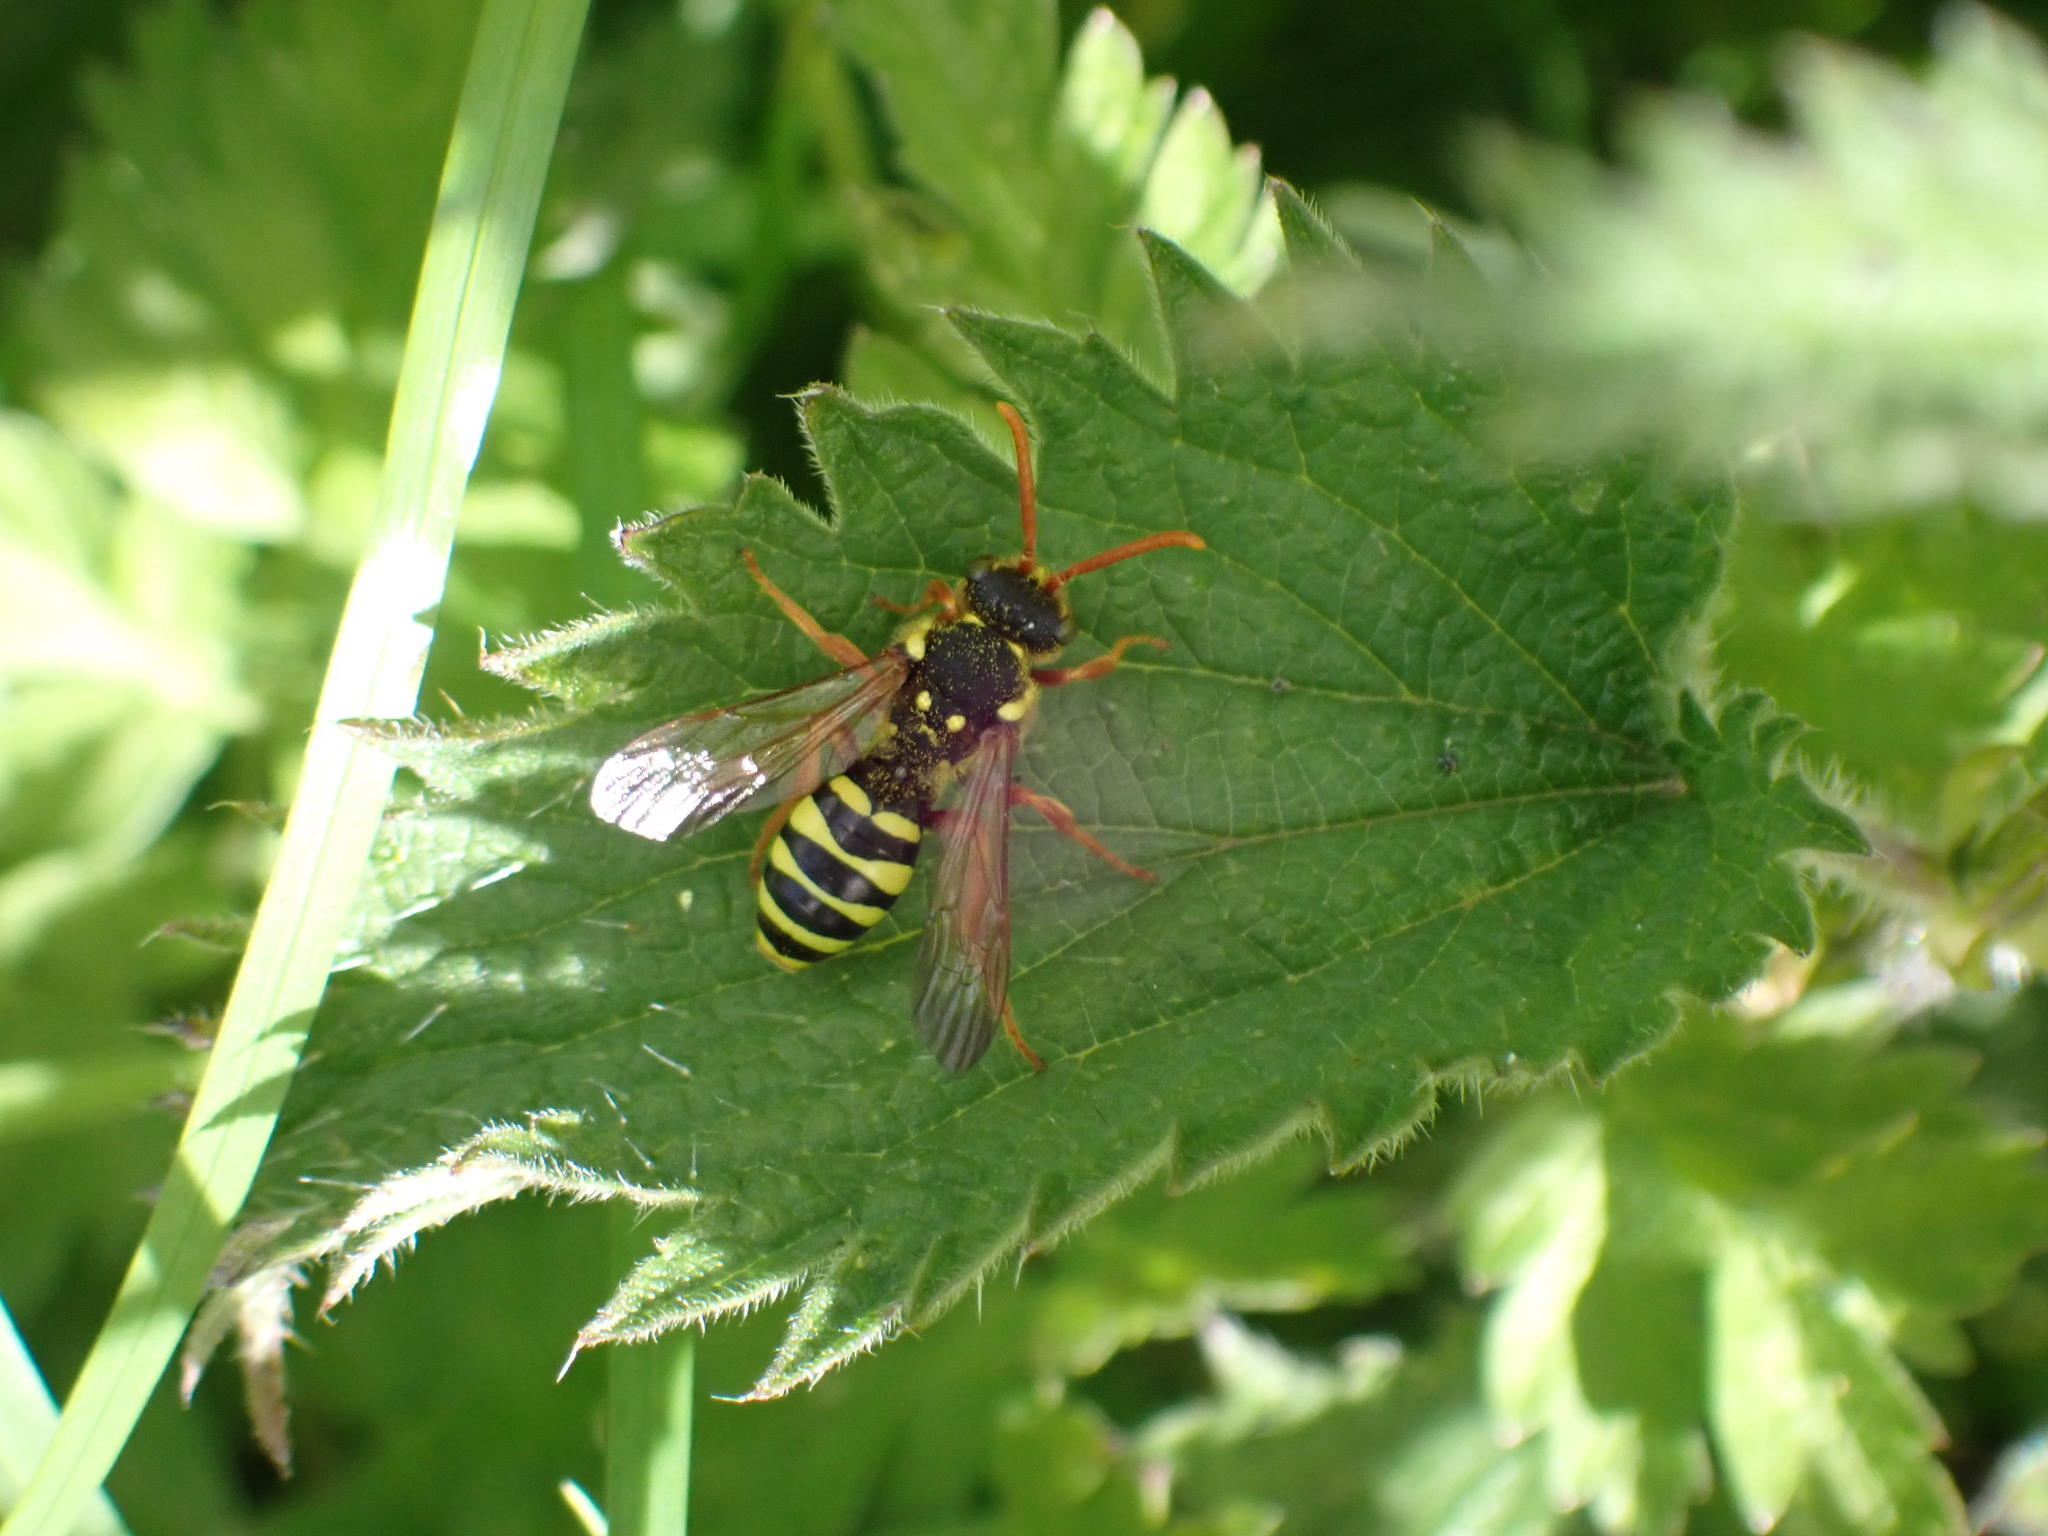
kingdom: Animalia
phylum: Arthropoda
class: Insecta
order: Hymenoptera
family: Apidae
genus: Nomada
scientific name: Nomada goodeniana
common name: Gooden's nomad bee
